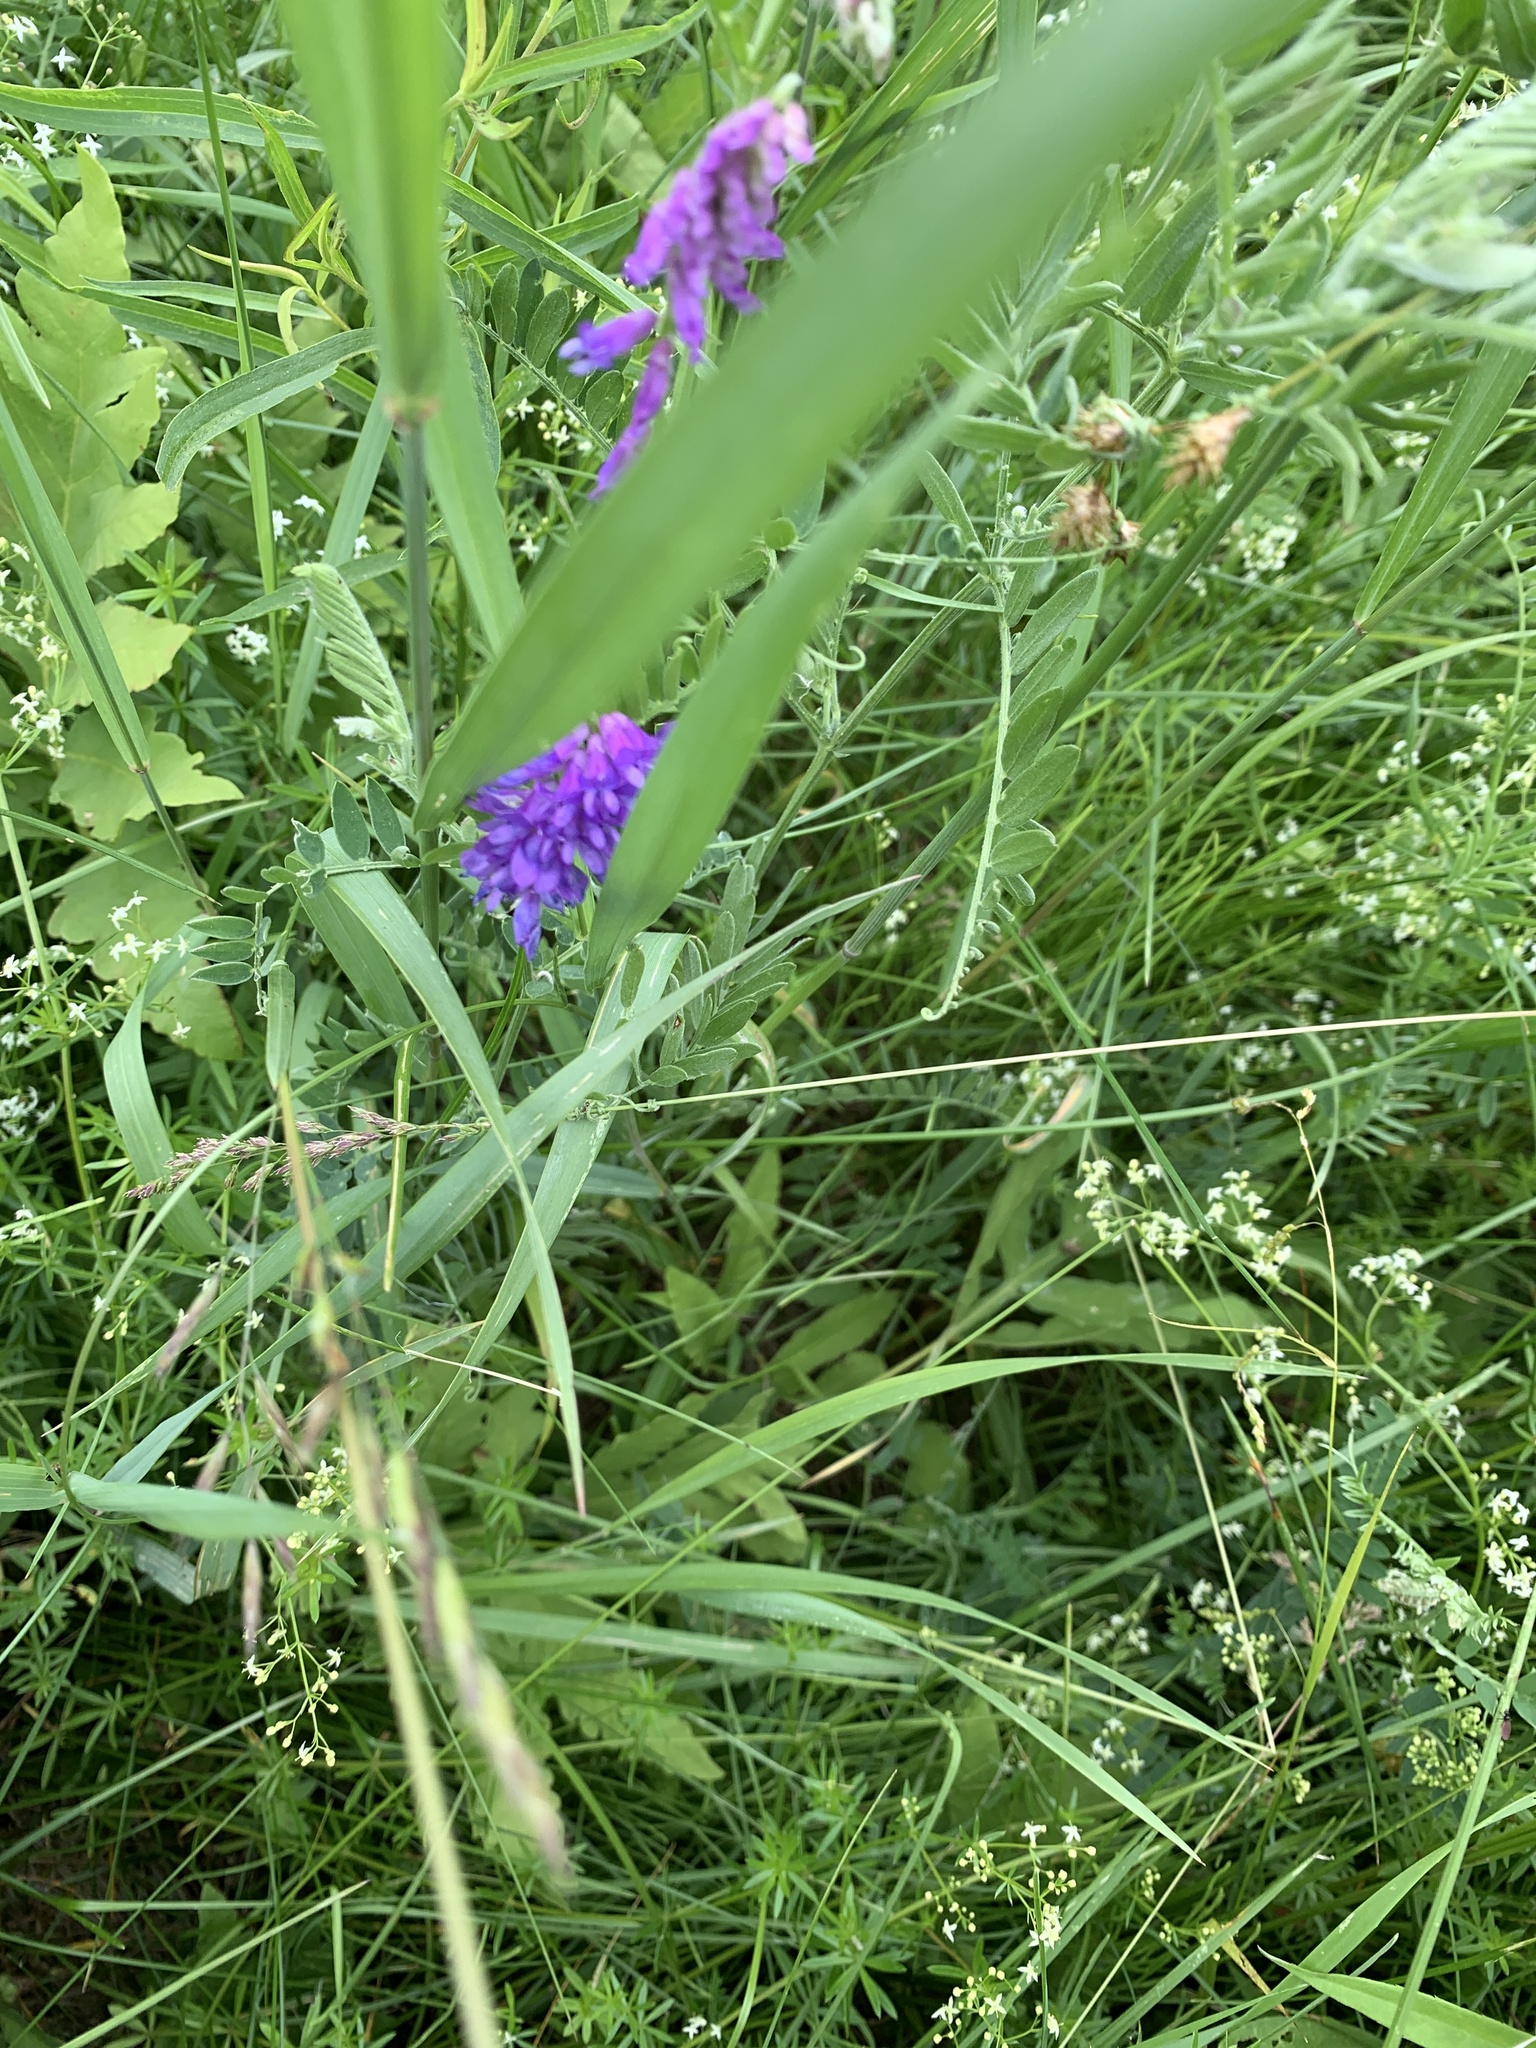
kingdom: Plantae
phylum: Tracheophyta
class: Magnoliopsida
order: Fabales
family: Fabaceae
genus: Vicia
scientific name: Vicia cracca
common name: Bird vetch
